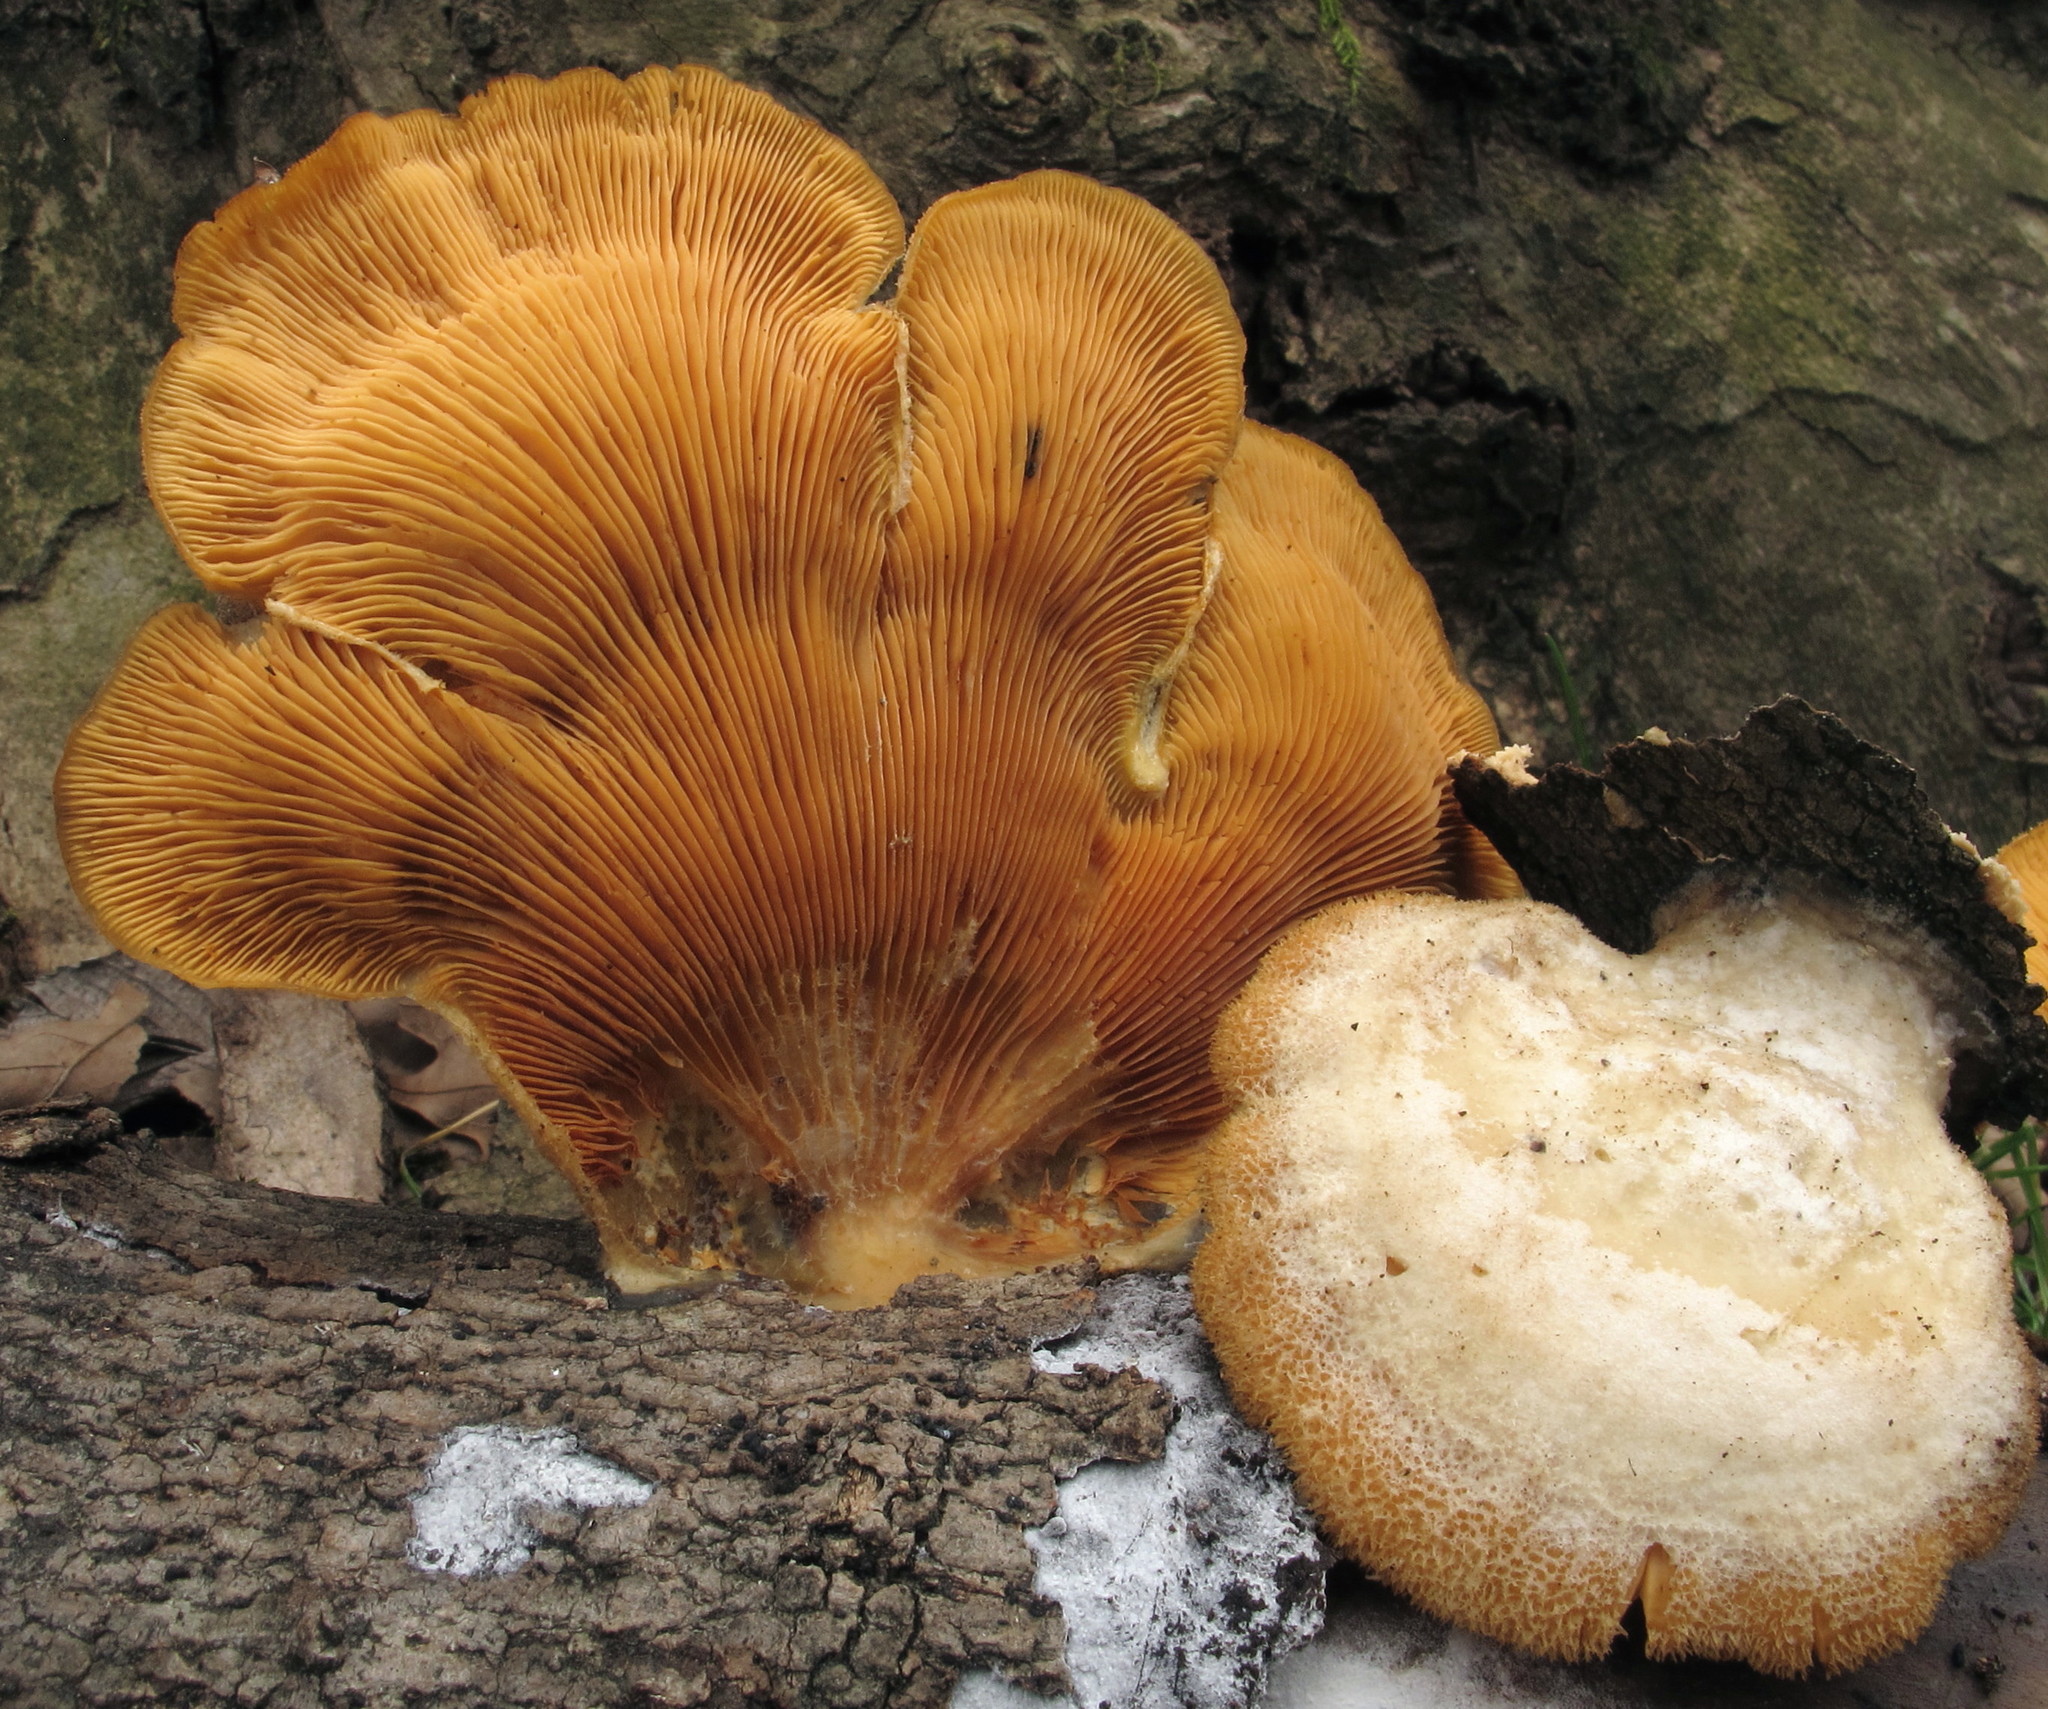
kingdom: Fungi
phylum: Basidiomycota
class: Agaricomycetes
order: Agaricales
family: Phyllotopsidaceae
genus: Phyllotopsis
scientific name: Phyllotopsis nidulans
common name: Orange mock oyster
